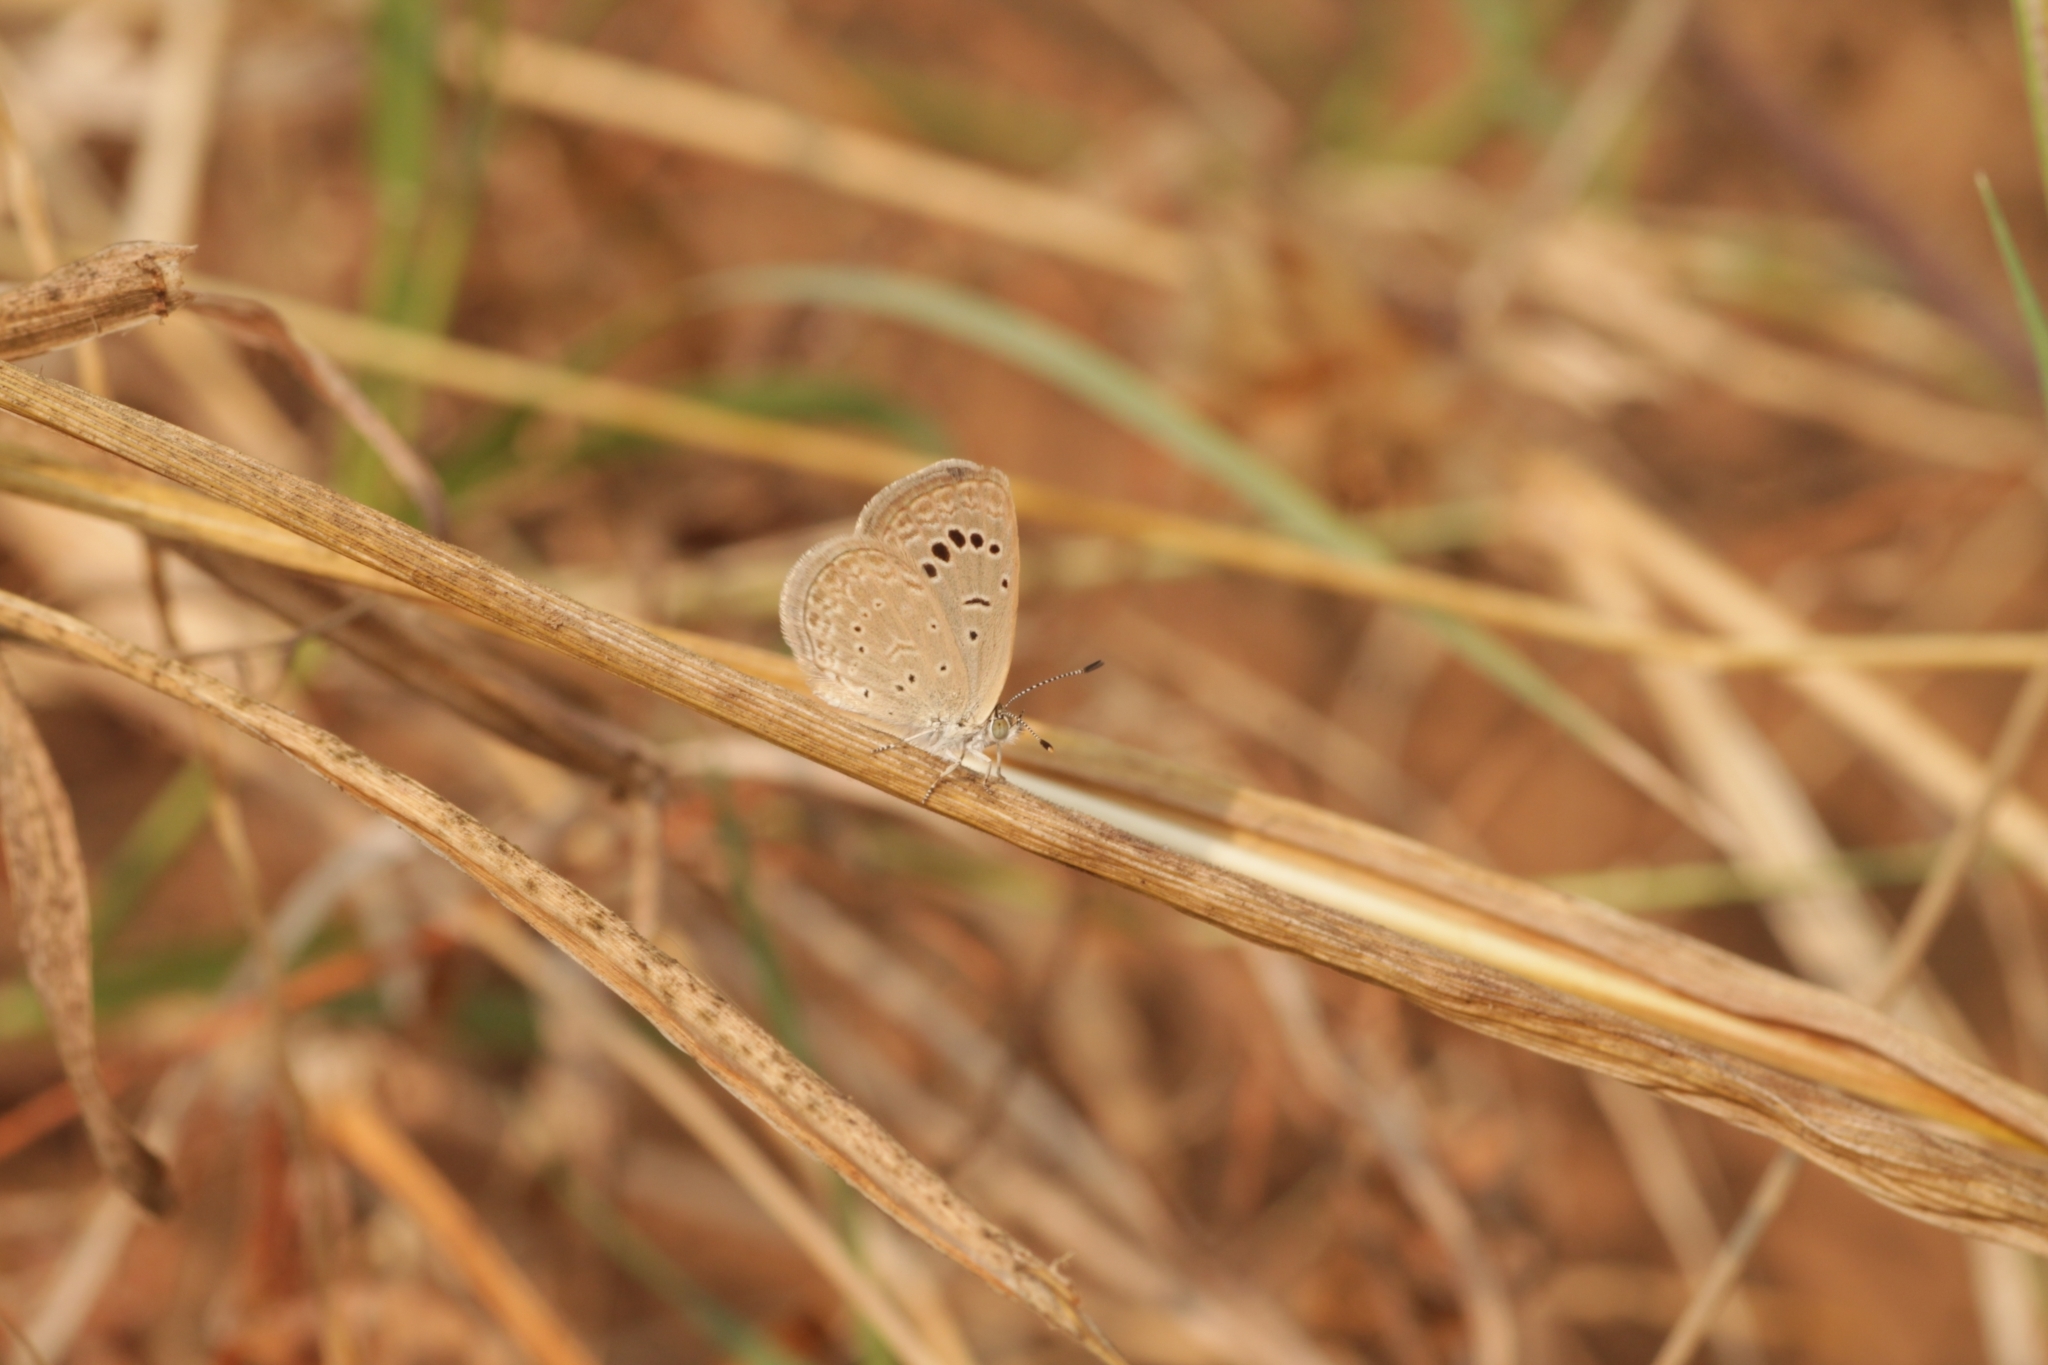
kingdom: Animalia
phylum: Arthropoda
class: Insecta
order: Lepidoptera
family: Lycaenidae
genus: Zizeeria
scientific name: Zizeeria karsandra
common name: Dark grass blue
